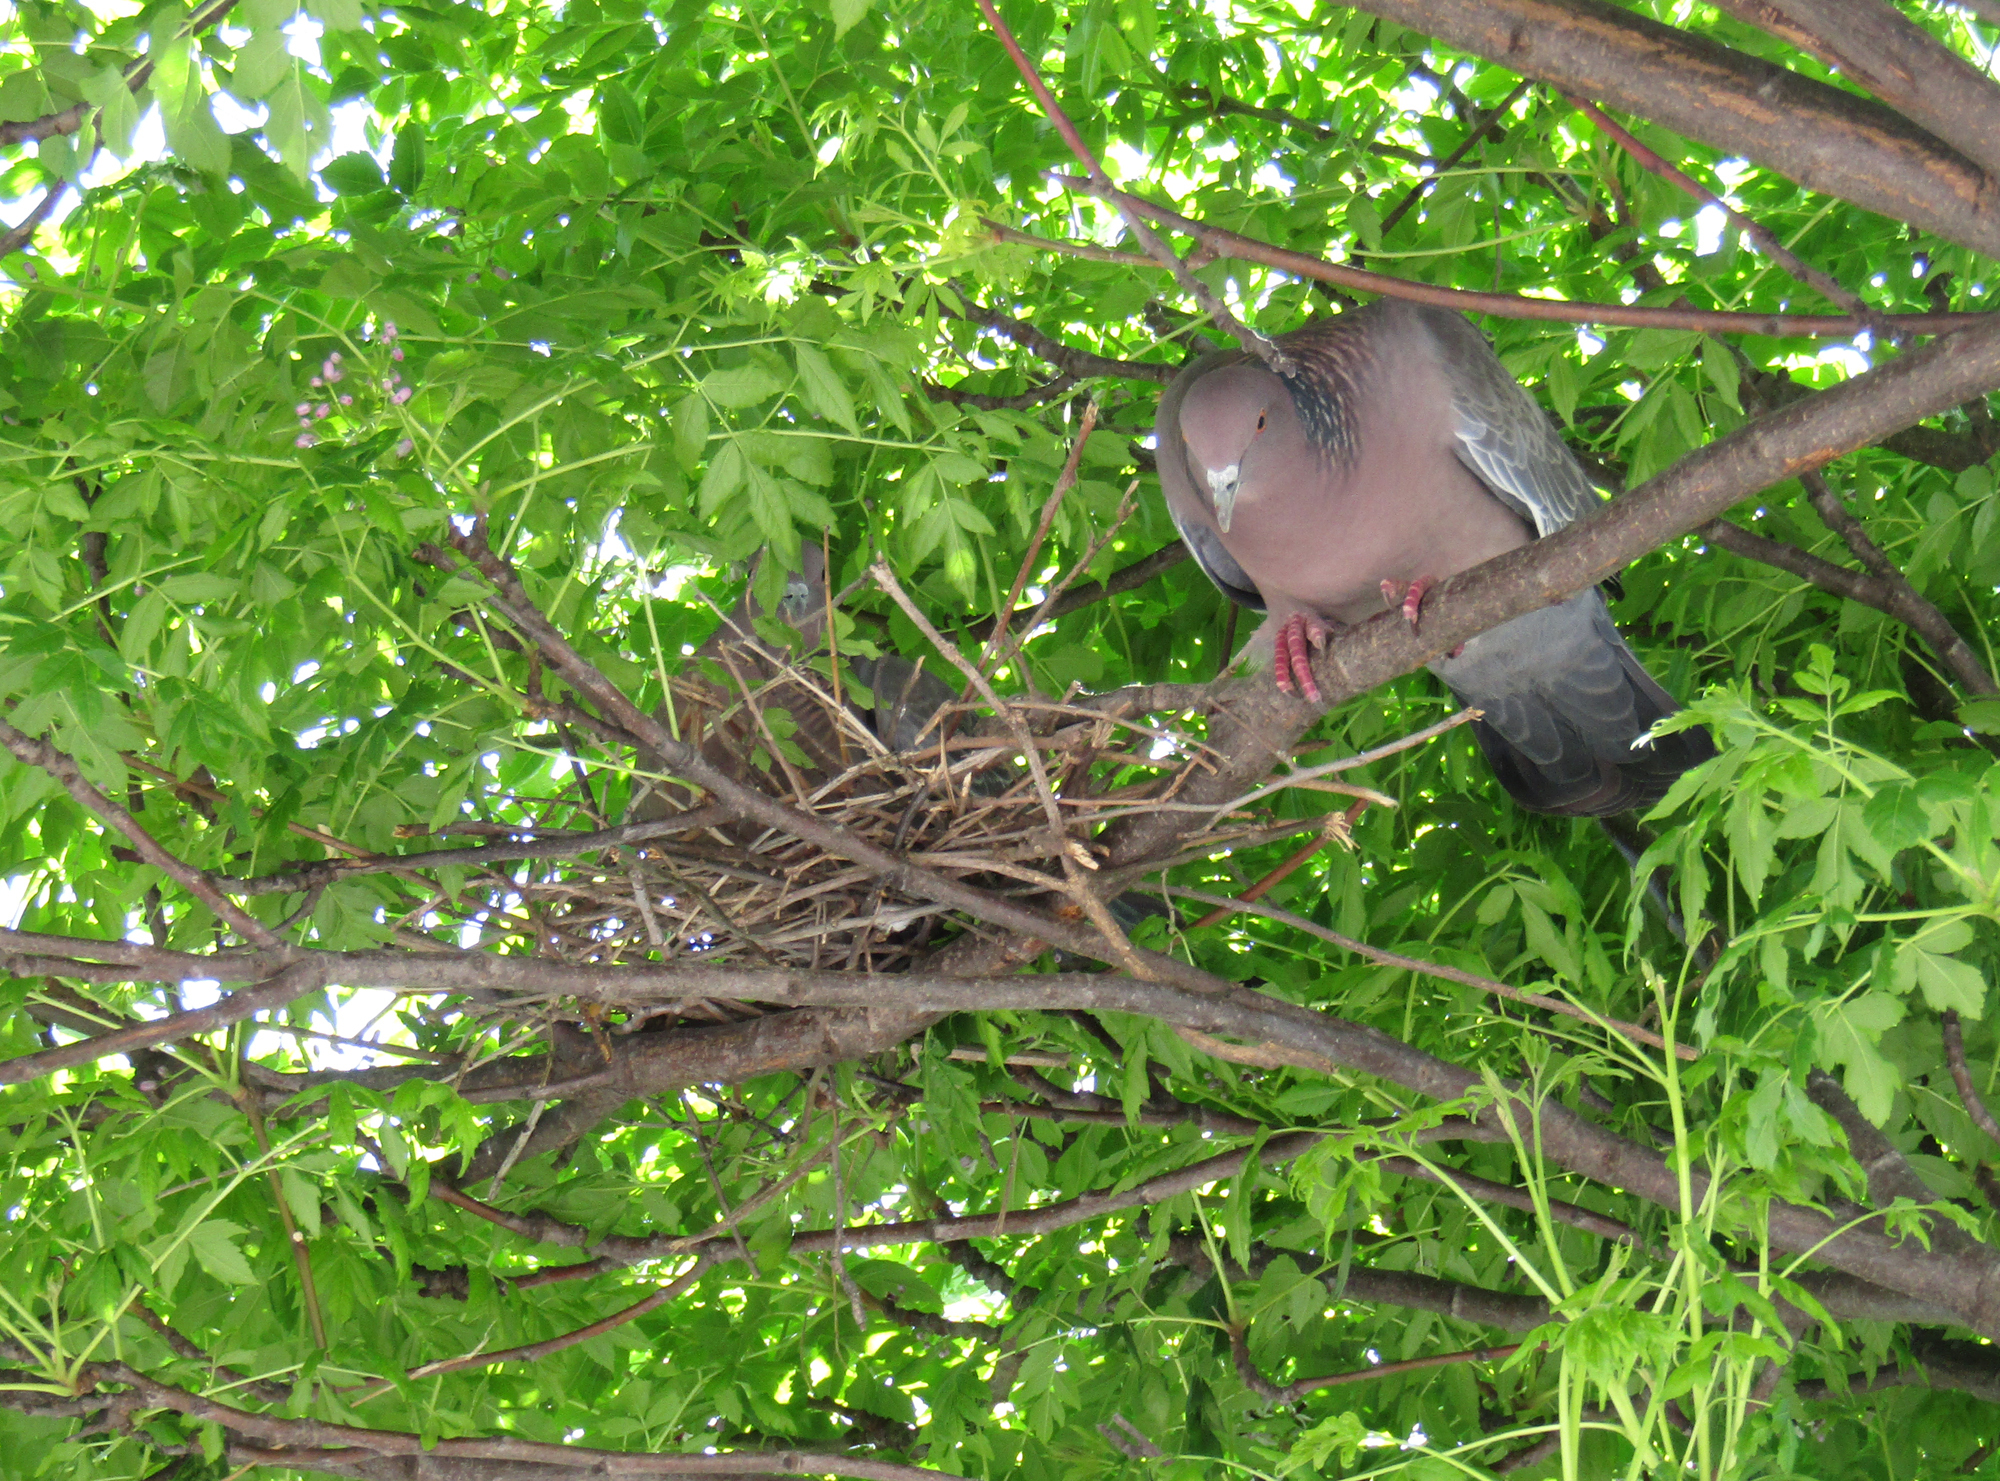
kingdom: Animalia
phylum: Chordata
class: Aves
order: Columbiformes
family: Columbidae
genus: Patagioenas
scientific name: Patagioenas picazuro
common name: Picazuro pigeon
